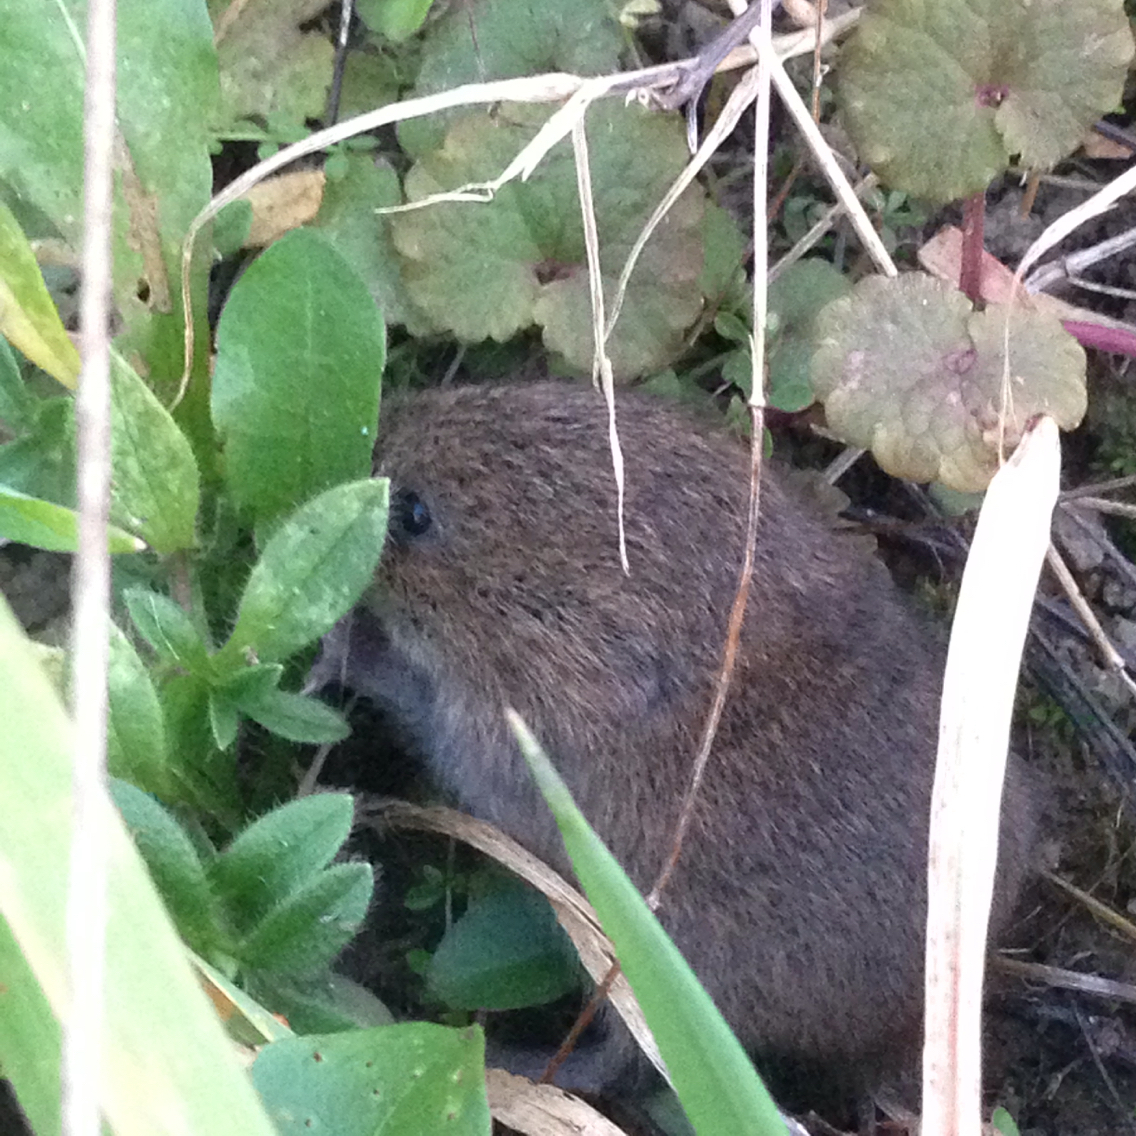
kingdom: Animalia
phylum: Chordata
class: Mammalia
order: Rodentia
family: Cricetidae
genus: Microtus
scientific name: Microtus pennsylvanicus
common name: Meadow vole
